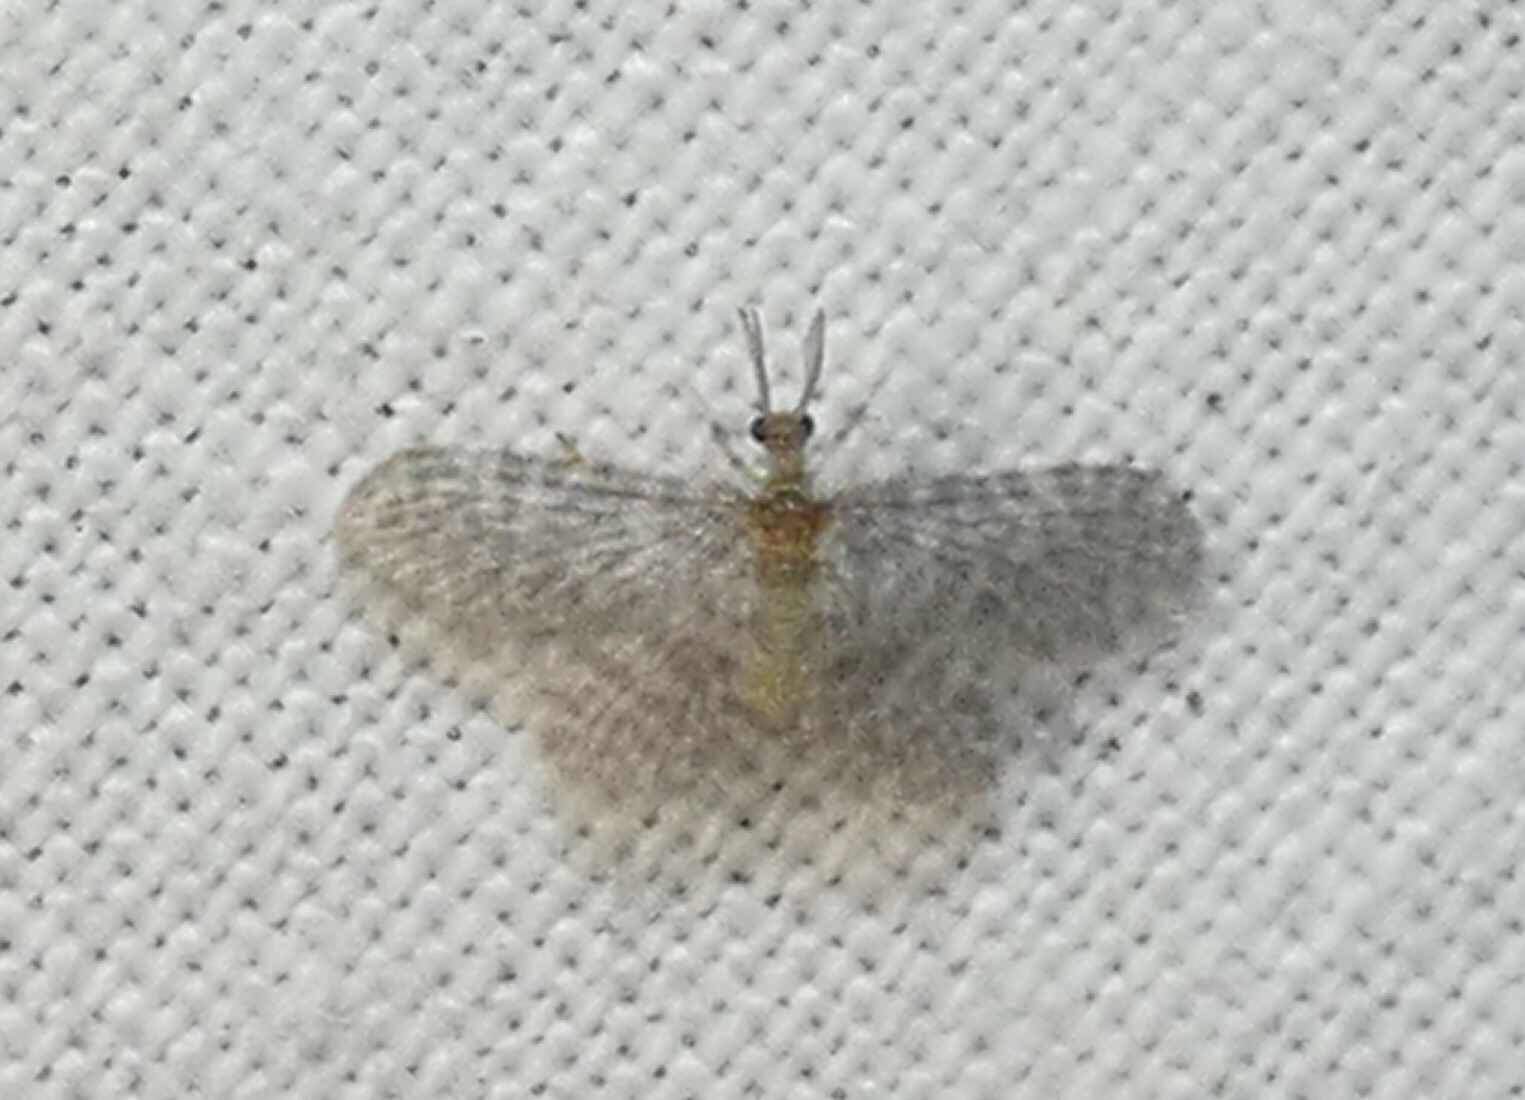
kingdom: Animalia
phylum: Arthropoda
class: Insecta
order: Neuroptera
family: Dilaridae
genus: Nallachius
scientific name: Nallachius americanus
